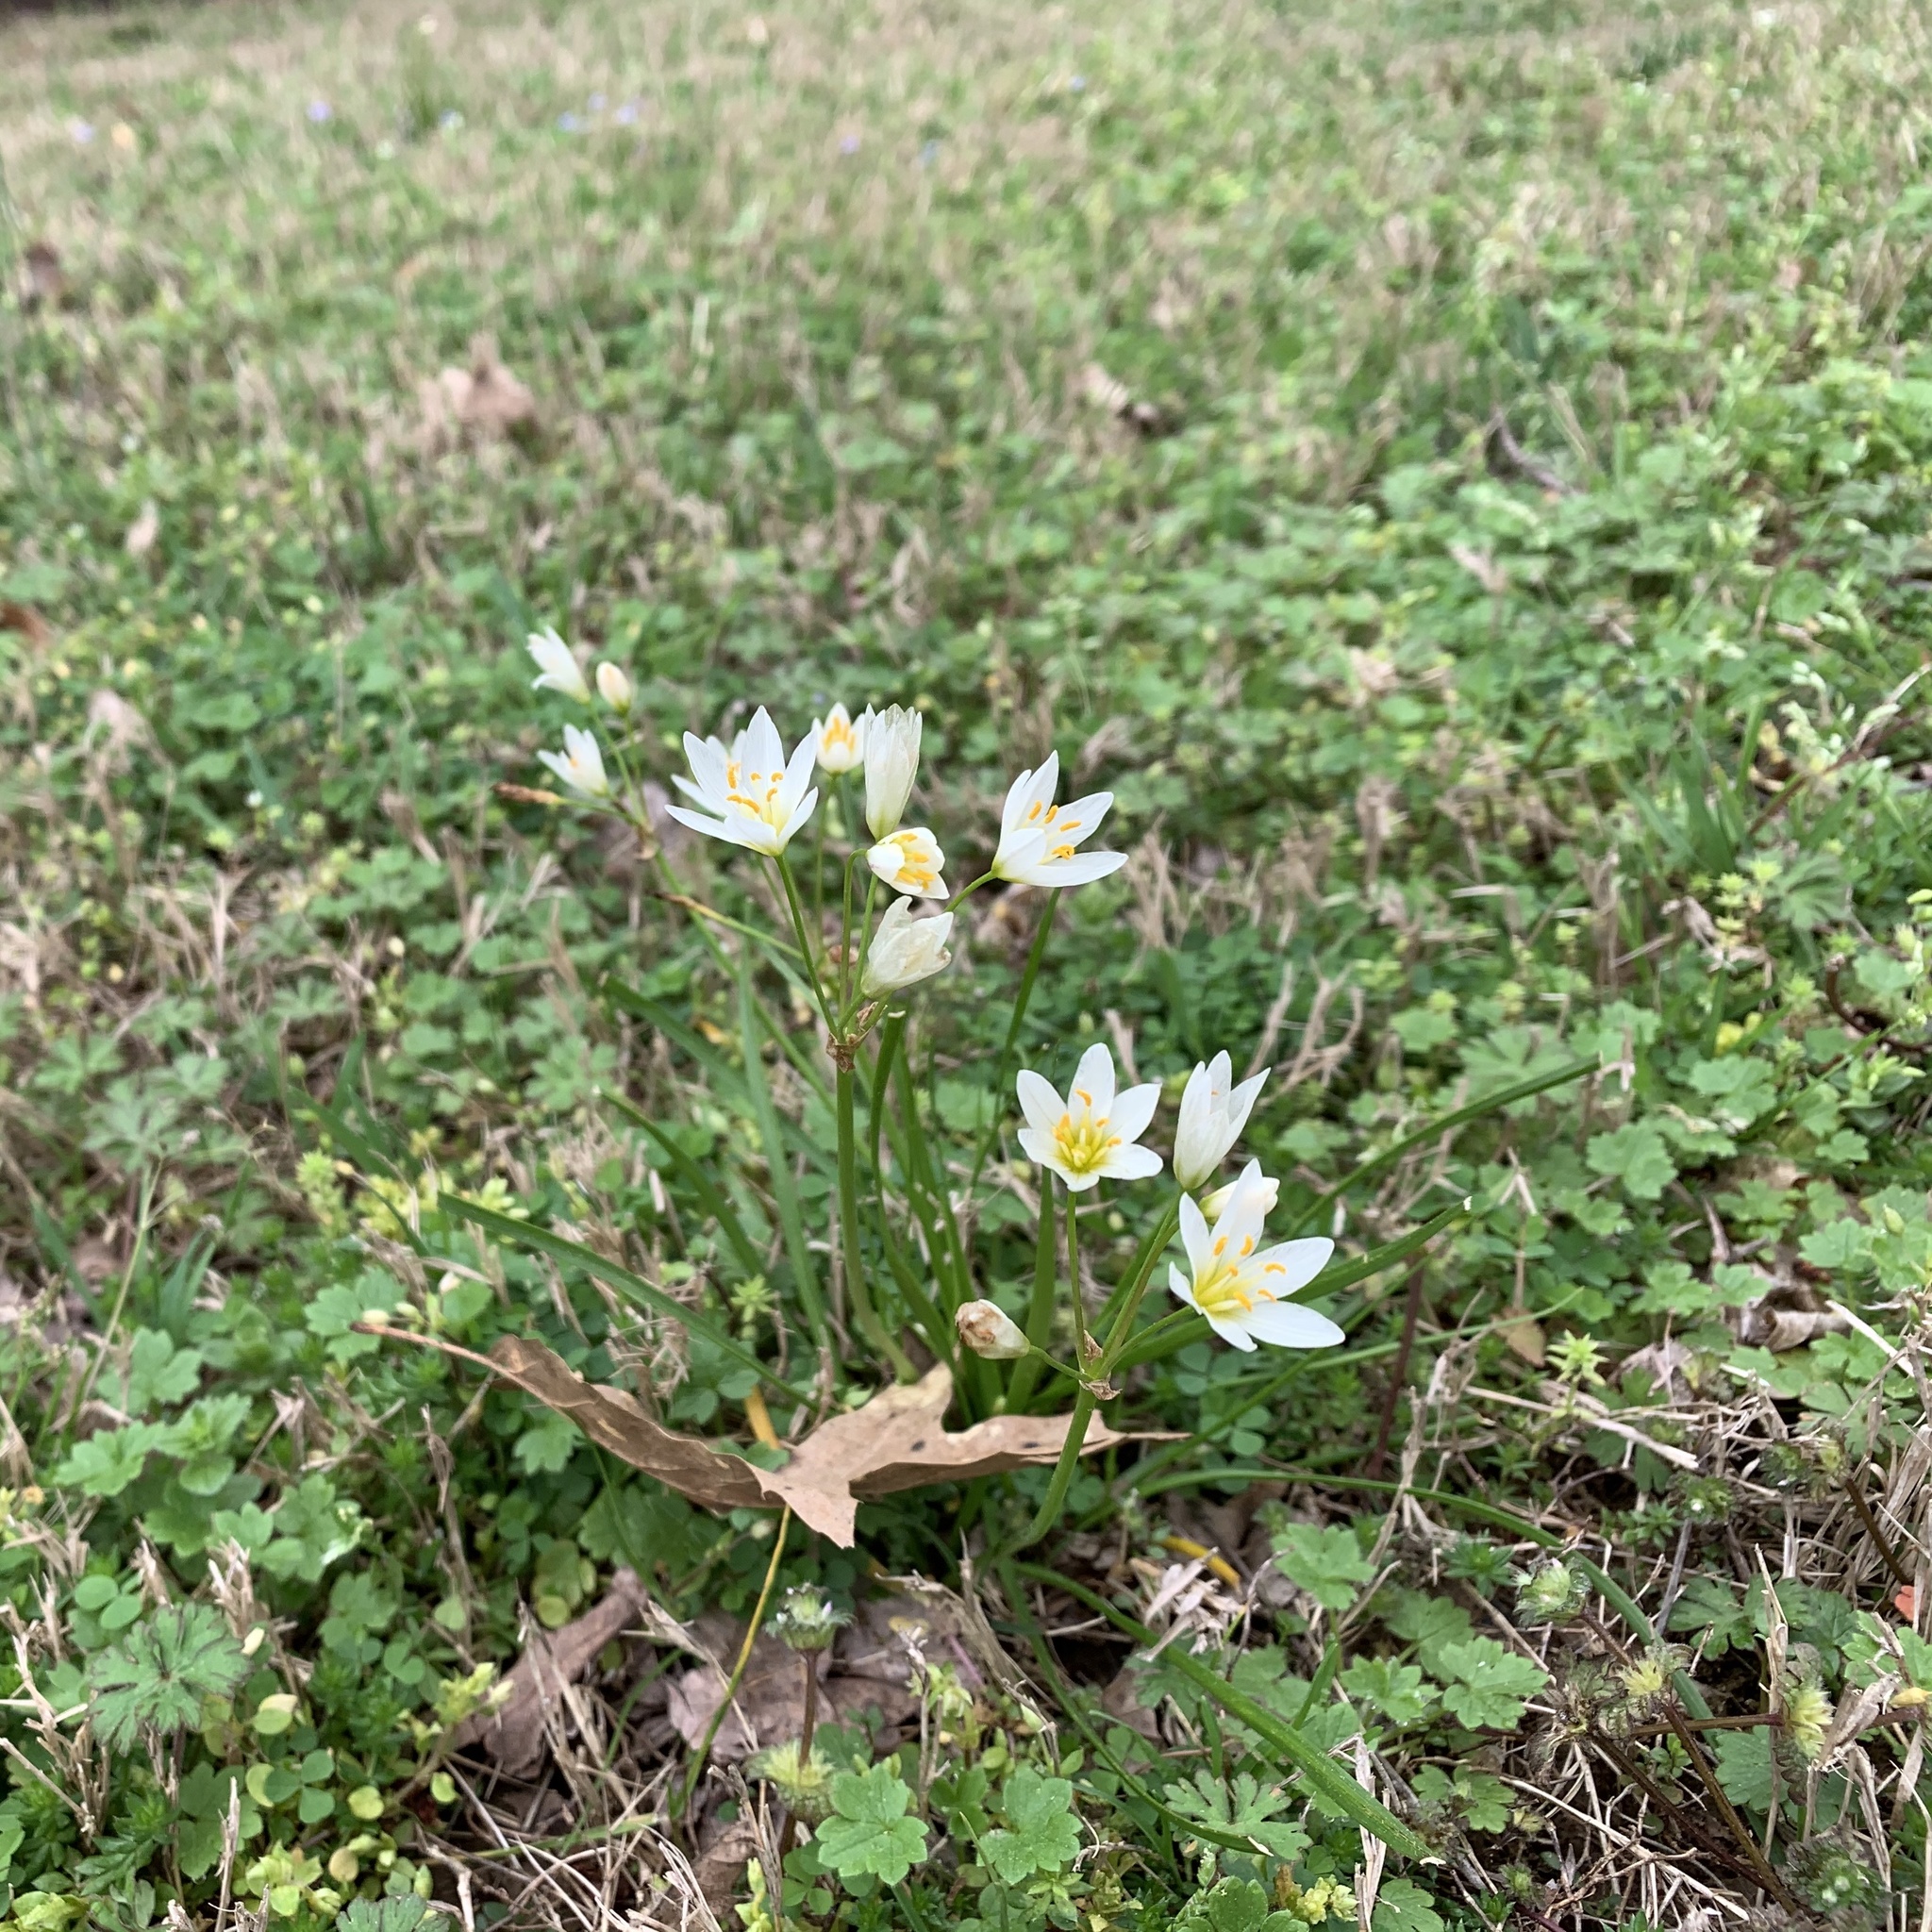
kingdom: Plantae
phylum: Tracheophyta
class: Liliopsida
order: Asparagales
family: Amaryllidaceae
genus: Nothoscordum
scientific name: Nothoscordum bivalve
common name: Crow-poison
